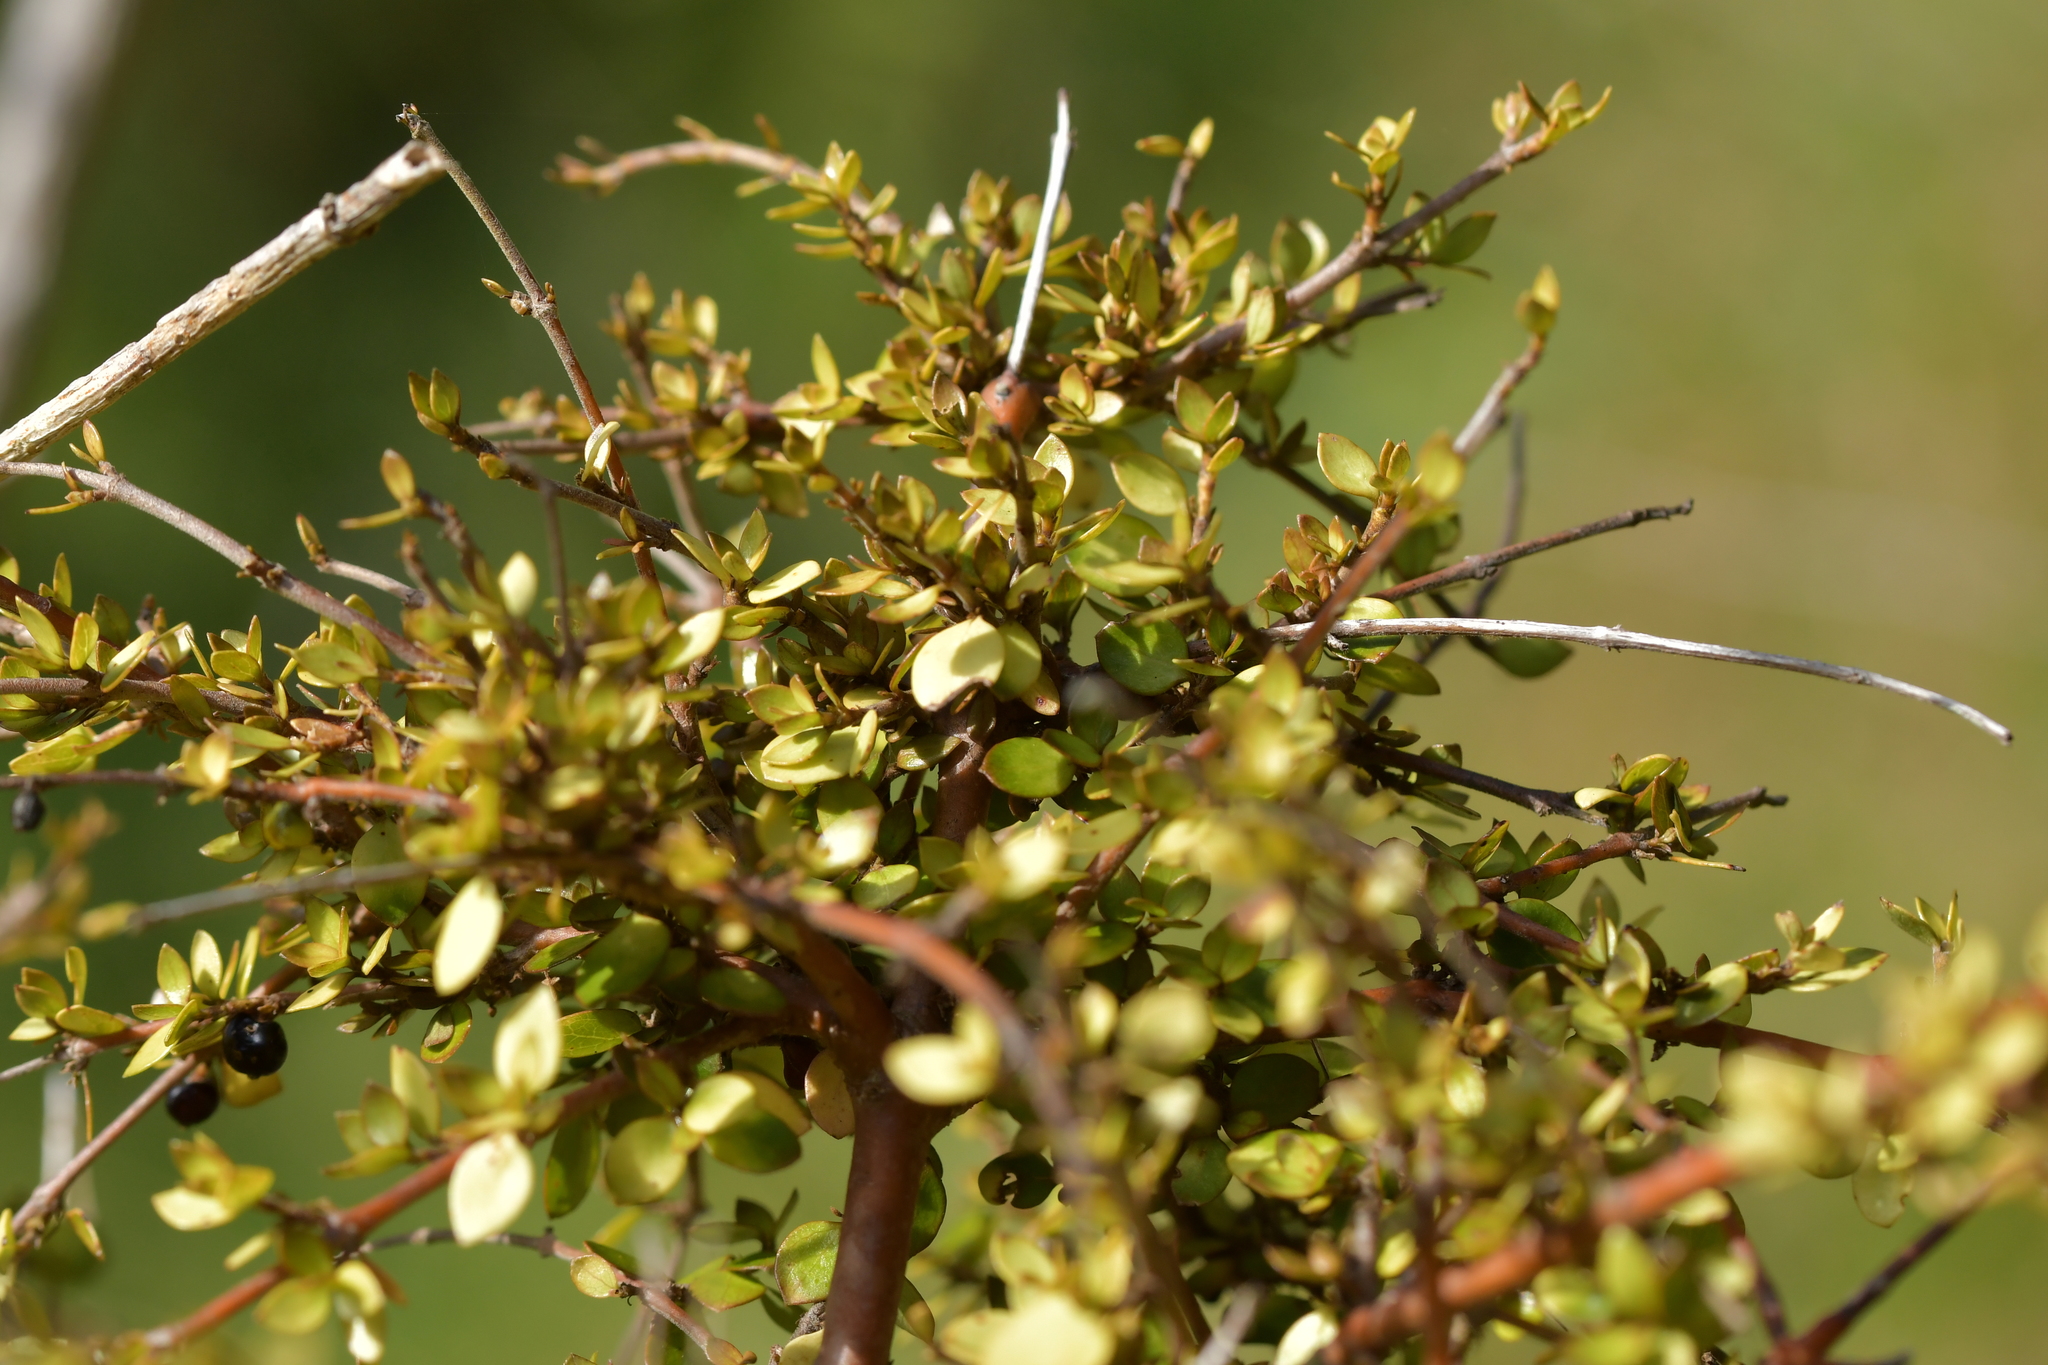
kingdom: Plantae
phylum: Tracheophyta
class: Magnoliopsida
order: Gentianales
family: Rubiaceae
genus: Coprosma
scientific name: Coprosma rhamnoides
